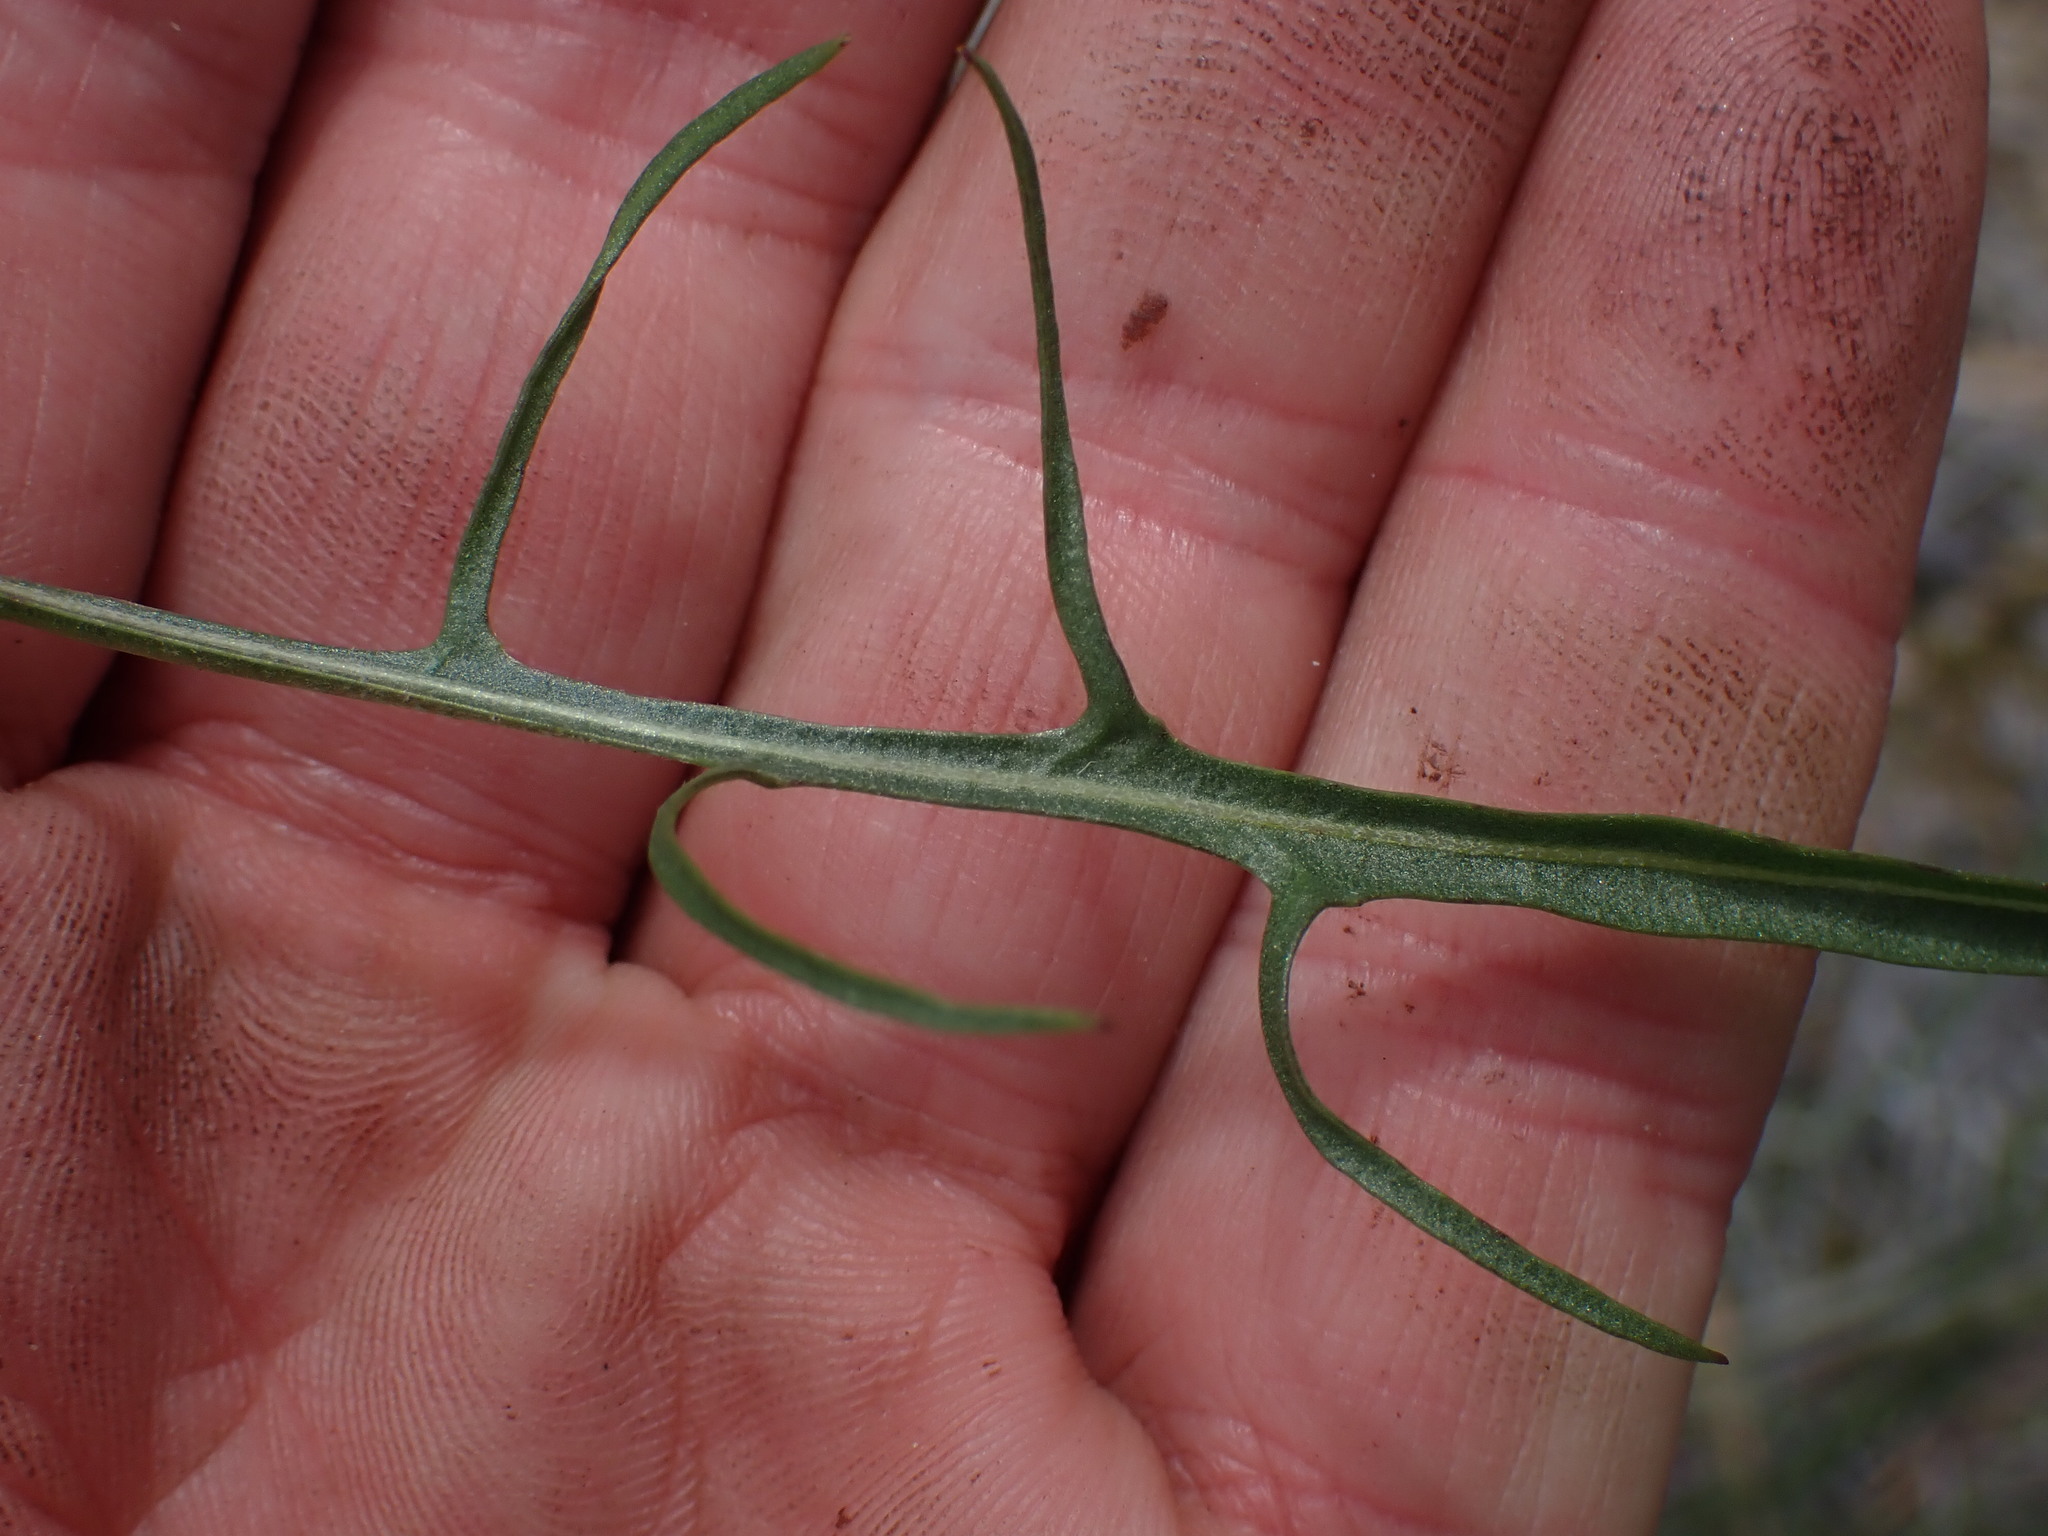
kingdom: Plantae
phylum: Tracheophyta
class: Magnoliopsida
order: Asterales
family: Asteraceae
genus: Crepis
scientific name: Crepis atribarba
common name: Dark hawk's-beard
